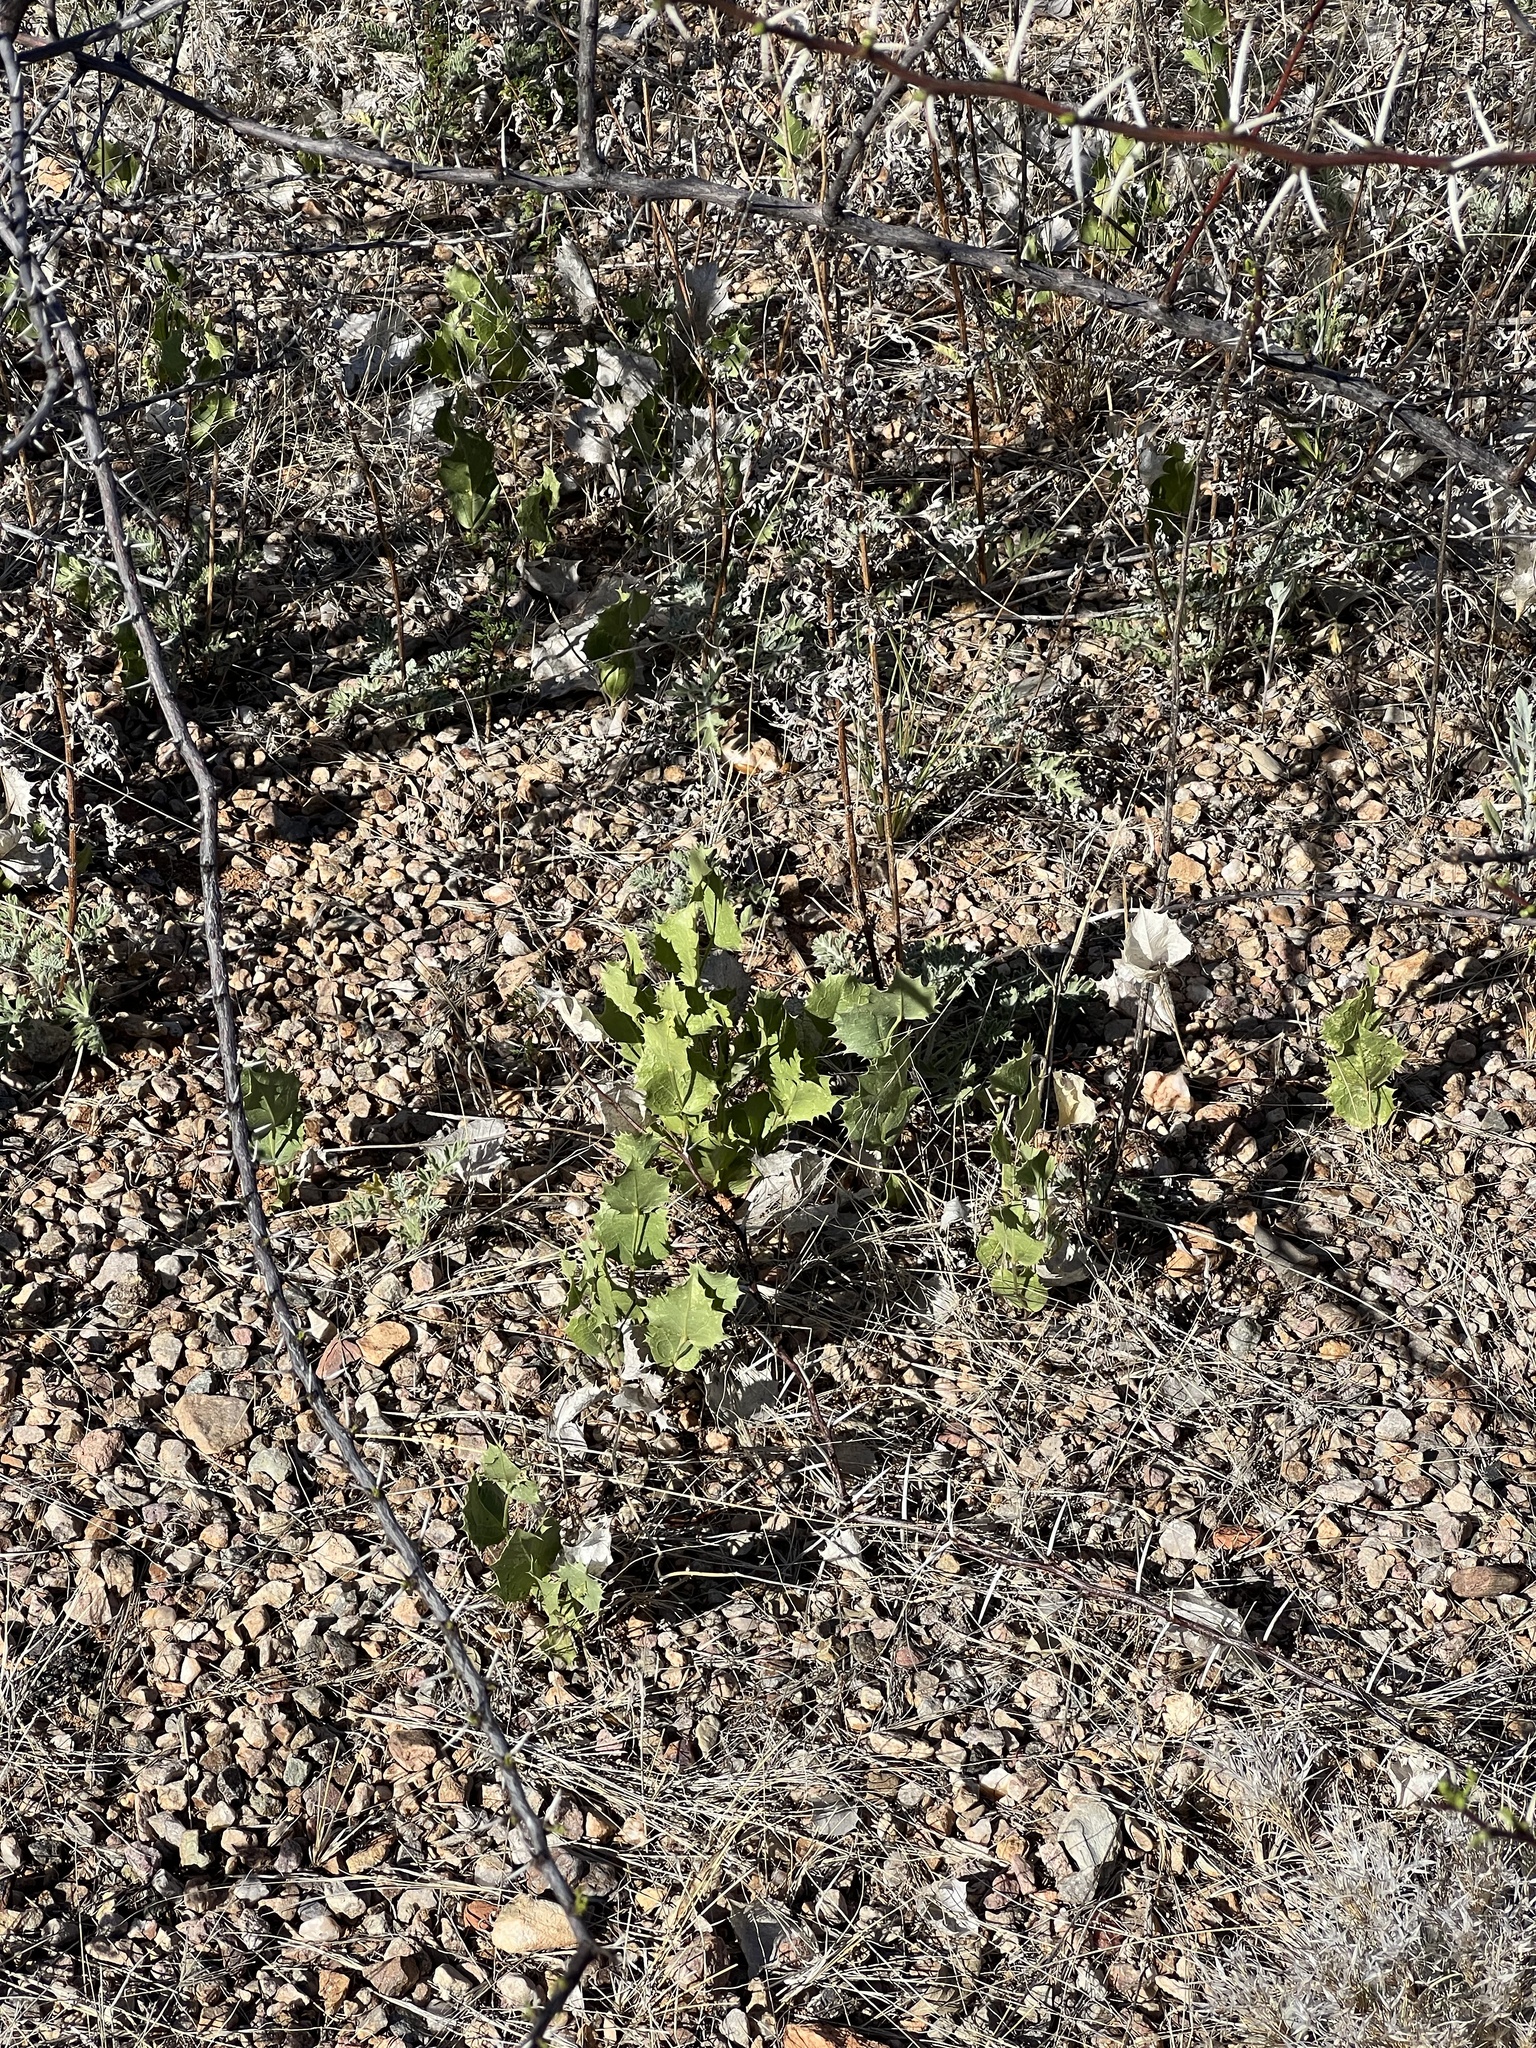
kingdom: Plantae
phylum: Tracheophyta
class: Magnoliopsida
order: Asterales
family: Asteraceae
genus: Acourtia
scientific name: Acourtia nana
